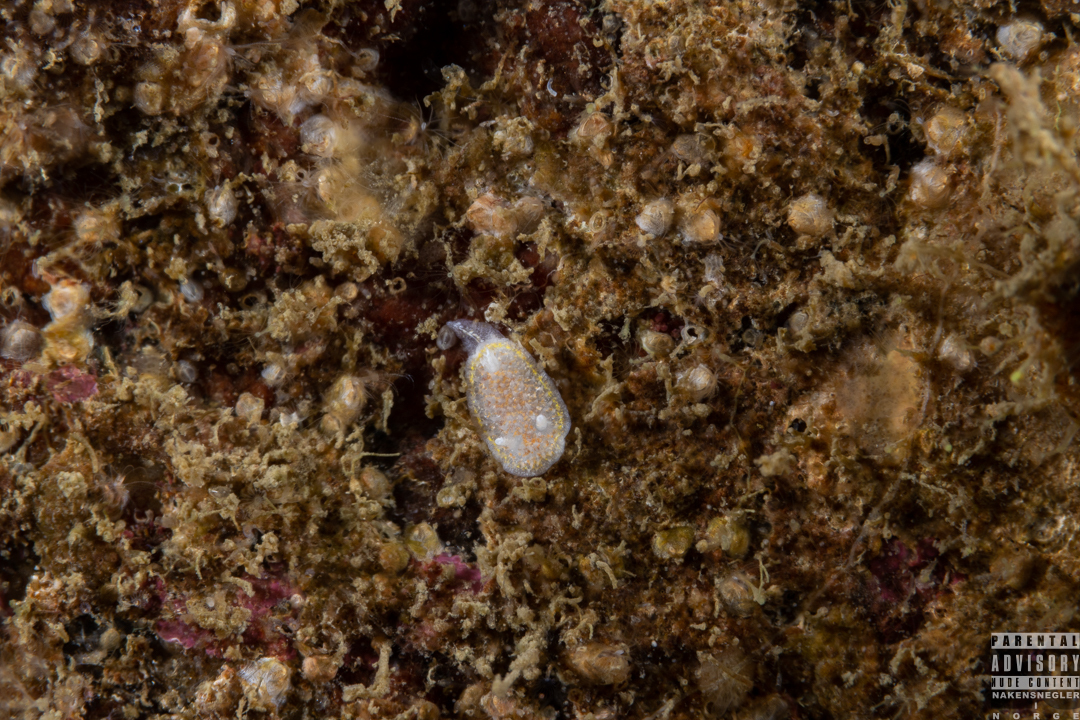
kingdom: Animalia
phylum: Mollusca
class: Gastropoda
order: Nudibranchia
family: Calycidorididae
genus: Diaphorodoris
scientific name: Diaphorodoris luteocincta
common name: Fried egg nudibranch
